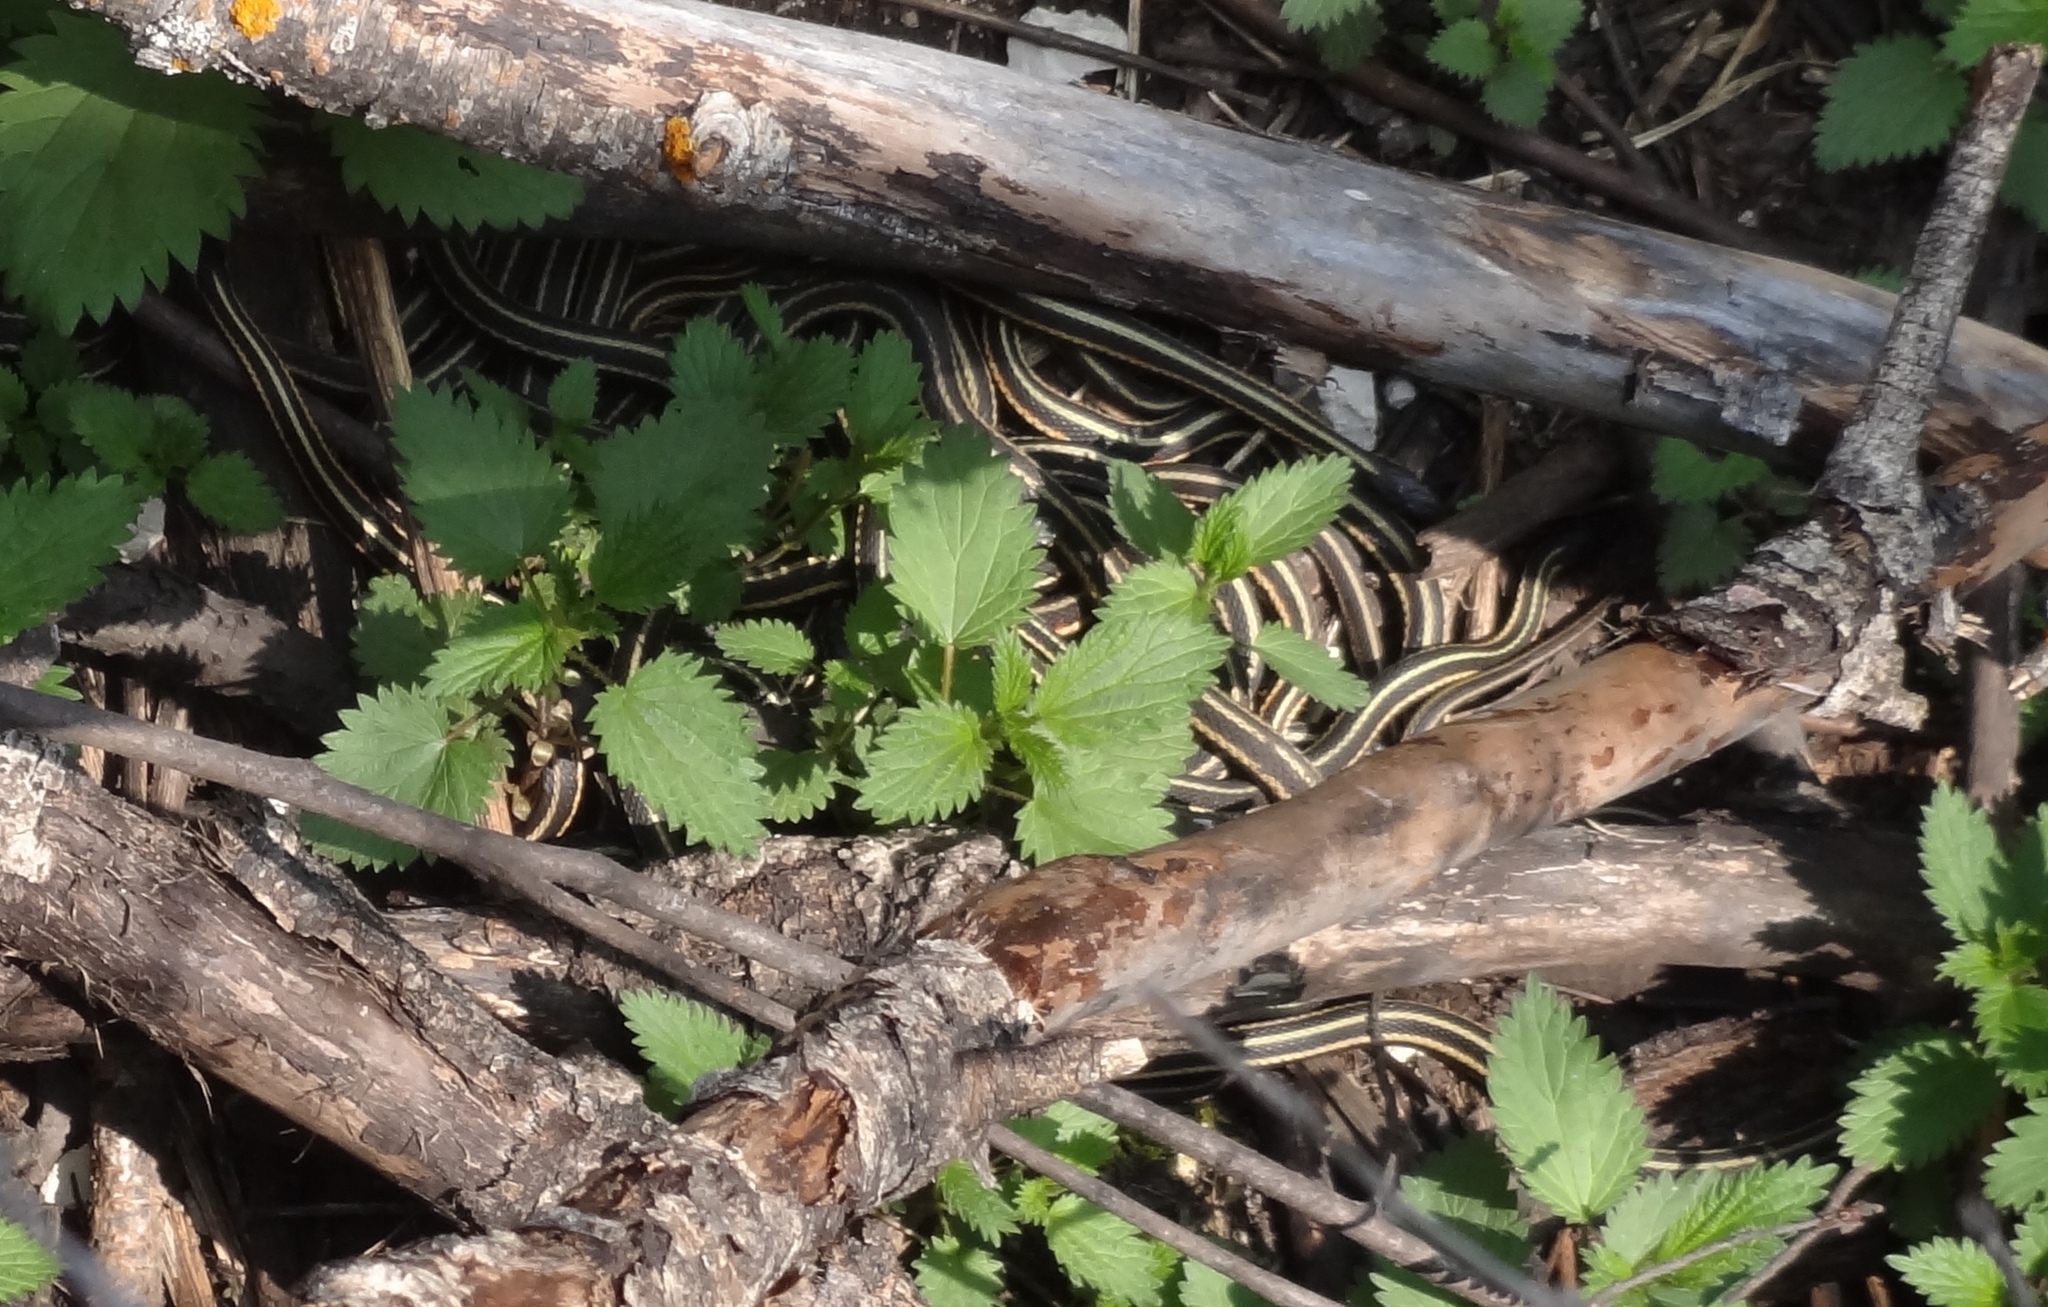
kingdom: Animalia
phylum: Chordata
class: Squamata
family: Colubridae
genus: Thamnophis
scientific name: Thamnophis sirtalis
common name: Common garter snake
